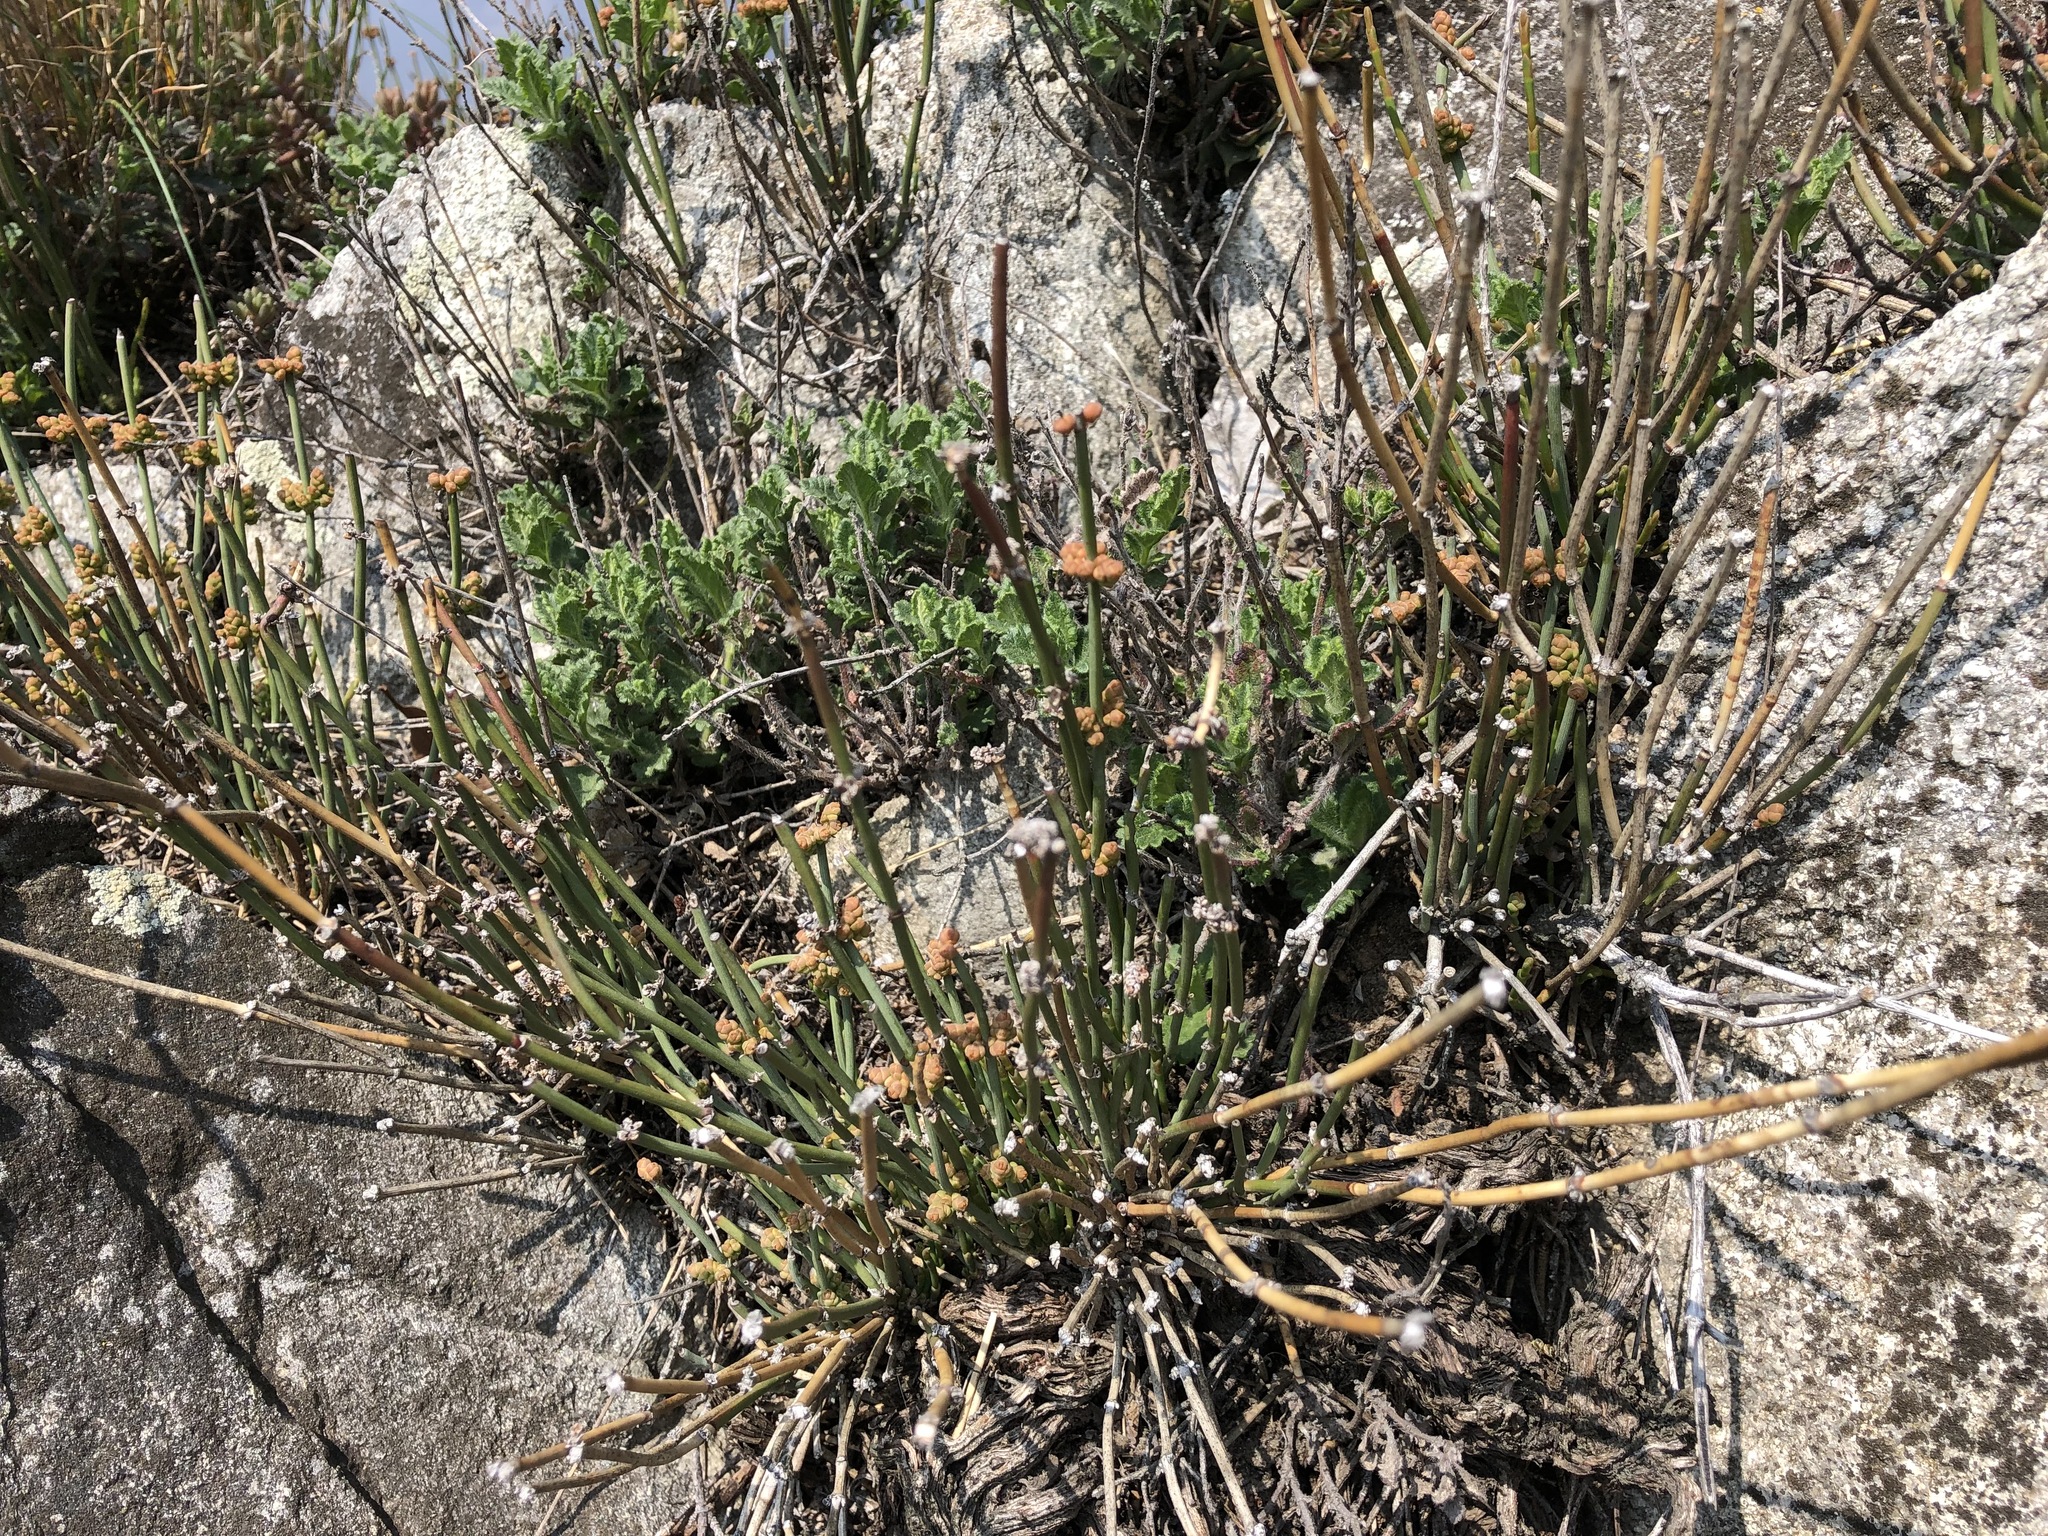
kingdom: Plantae
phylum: Tracheophyta
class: Gnetopsida
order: Ephedrales
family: Ephedraceae
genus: Ephedra
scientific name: Ephedra distachya
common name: Sea grape
